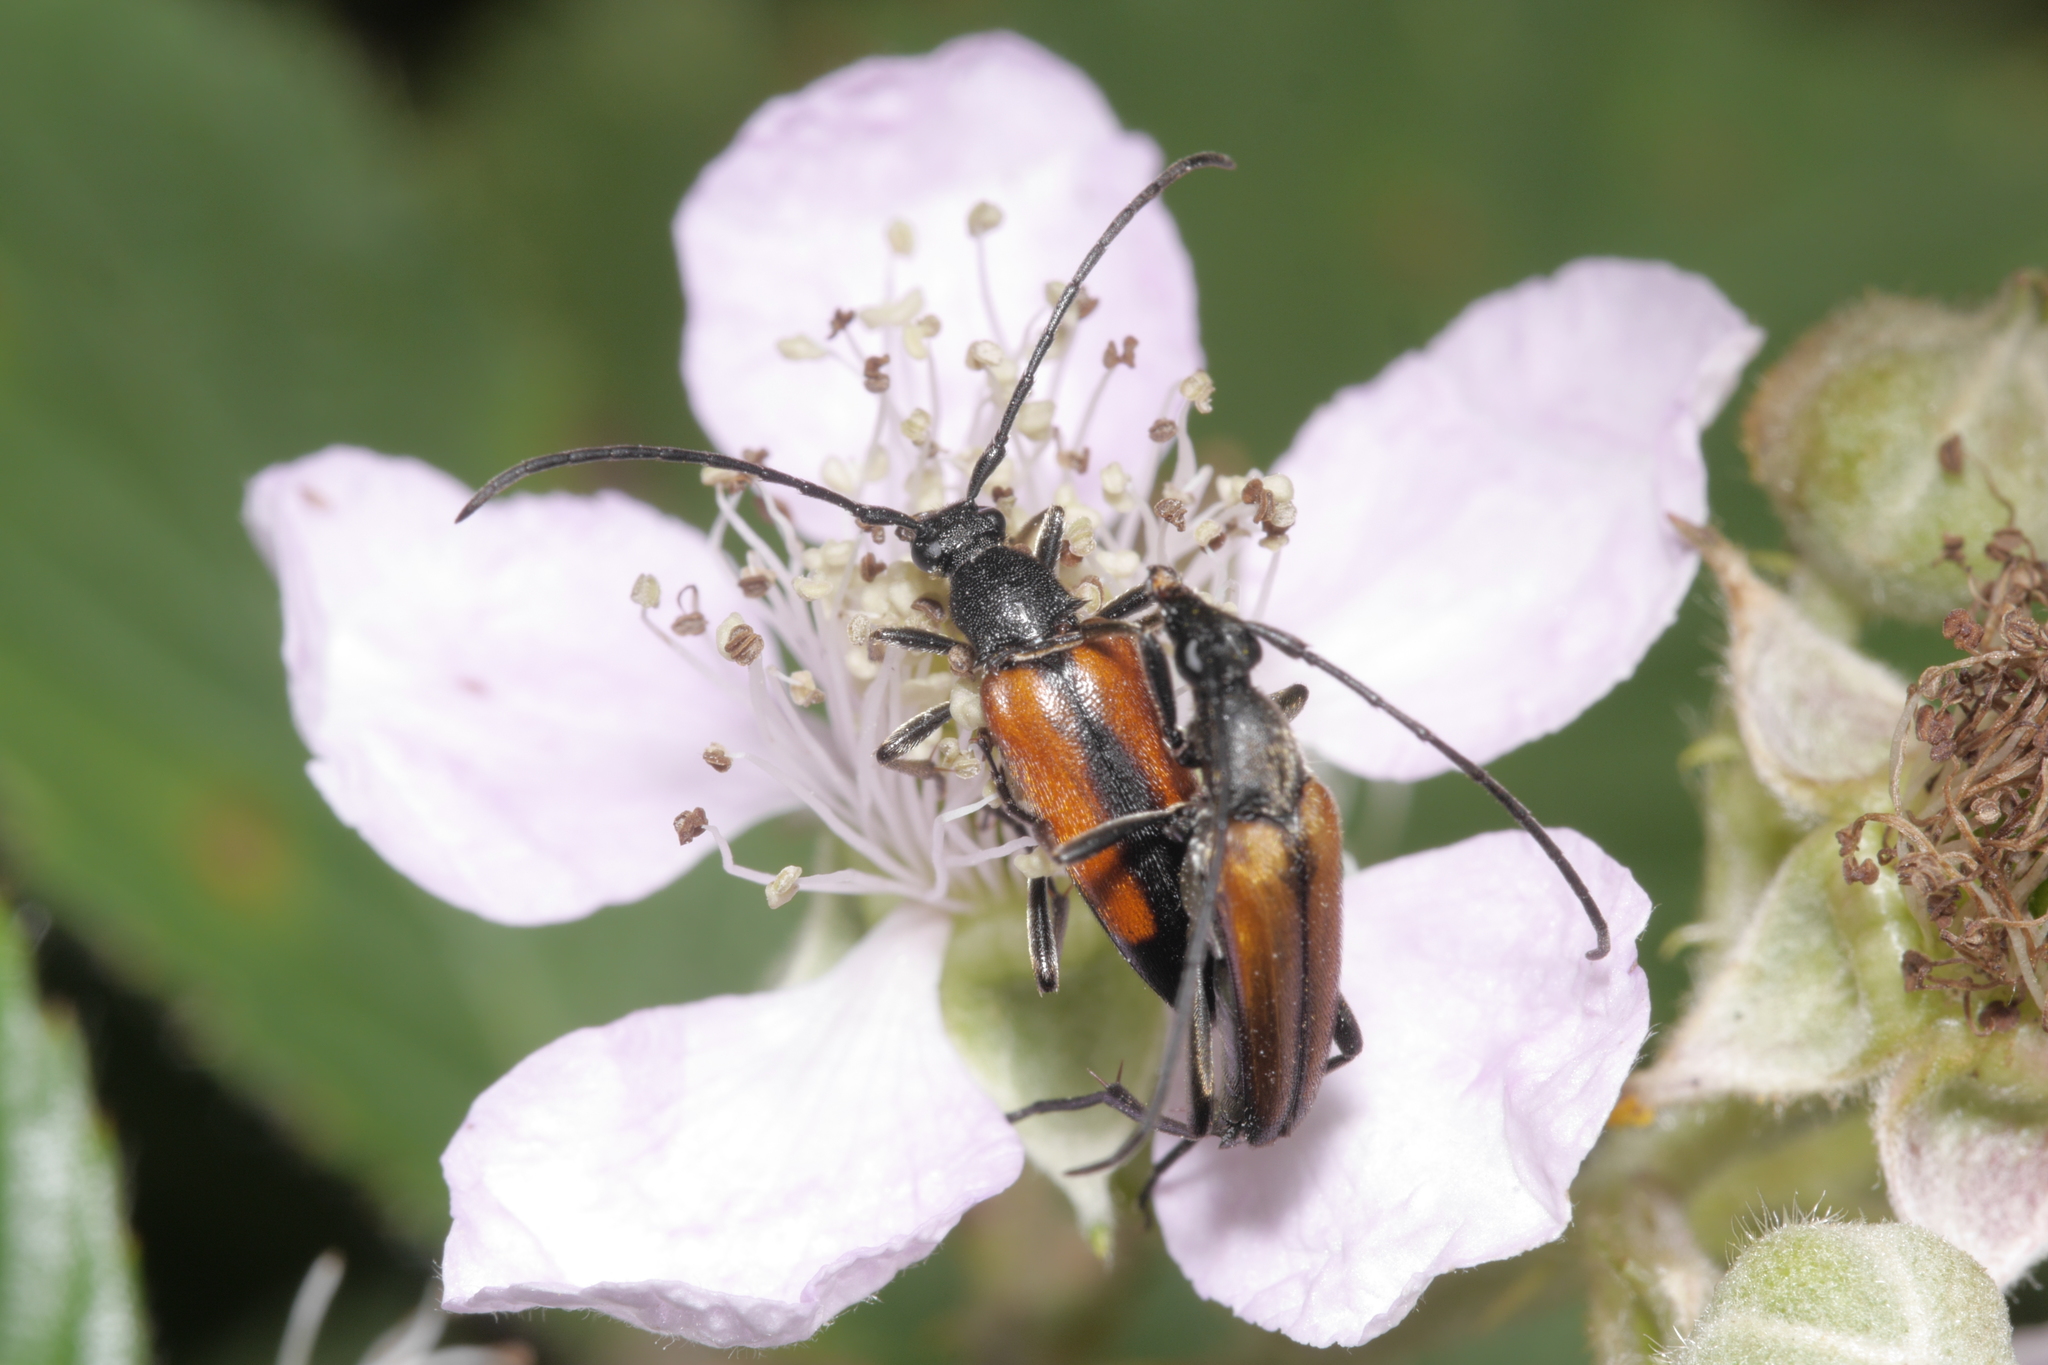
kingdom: Animalia
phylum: Arthropoda
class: Insecta
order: Coleoptera
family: Cerambycidae
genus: Stenurella
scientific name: Stenurella melanura
